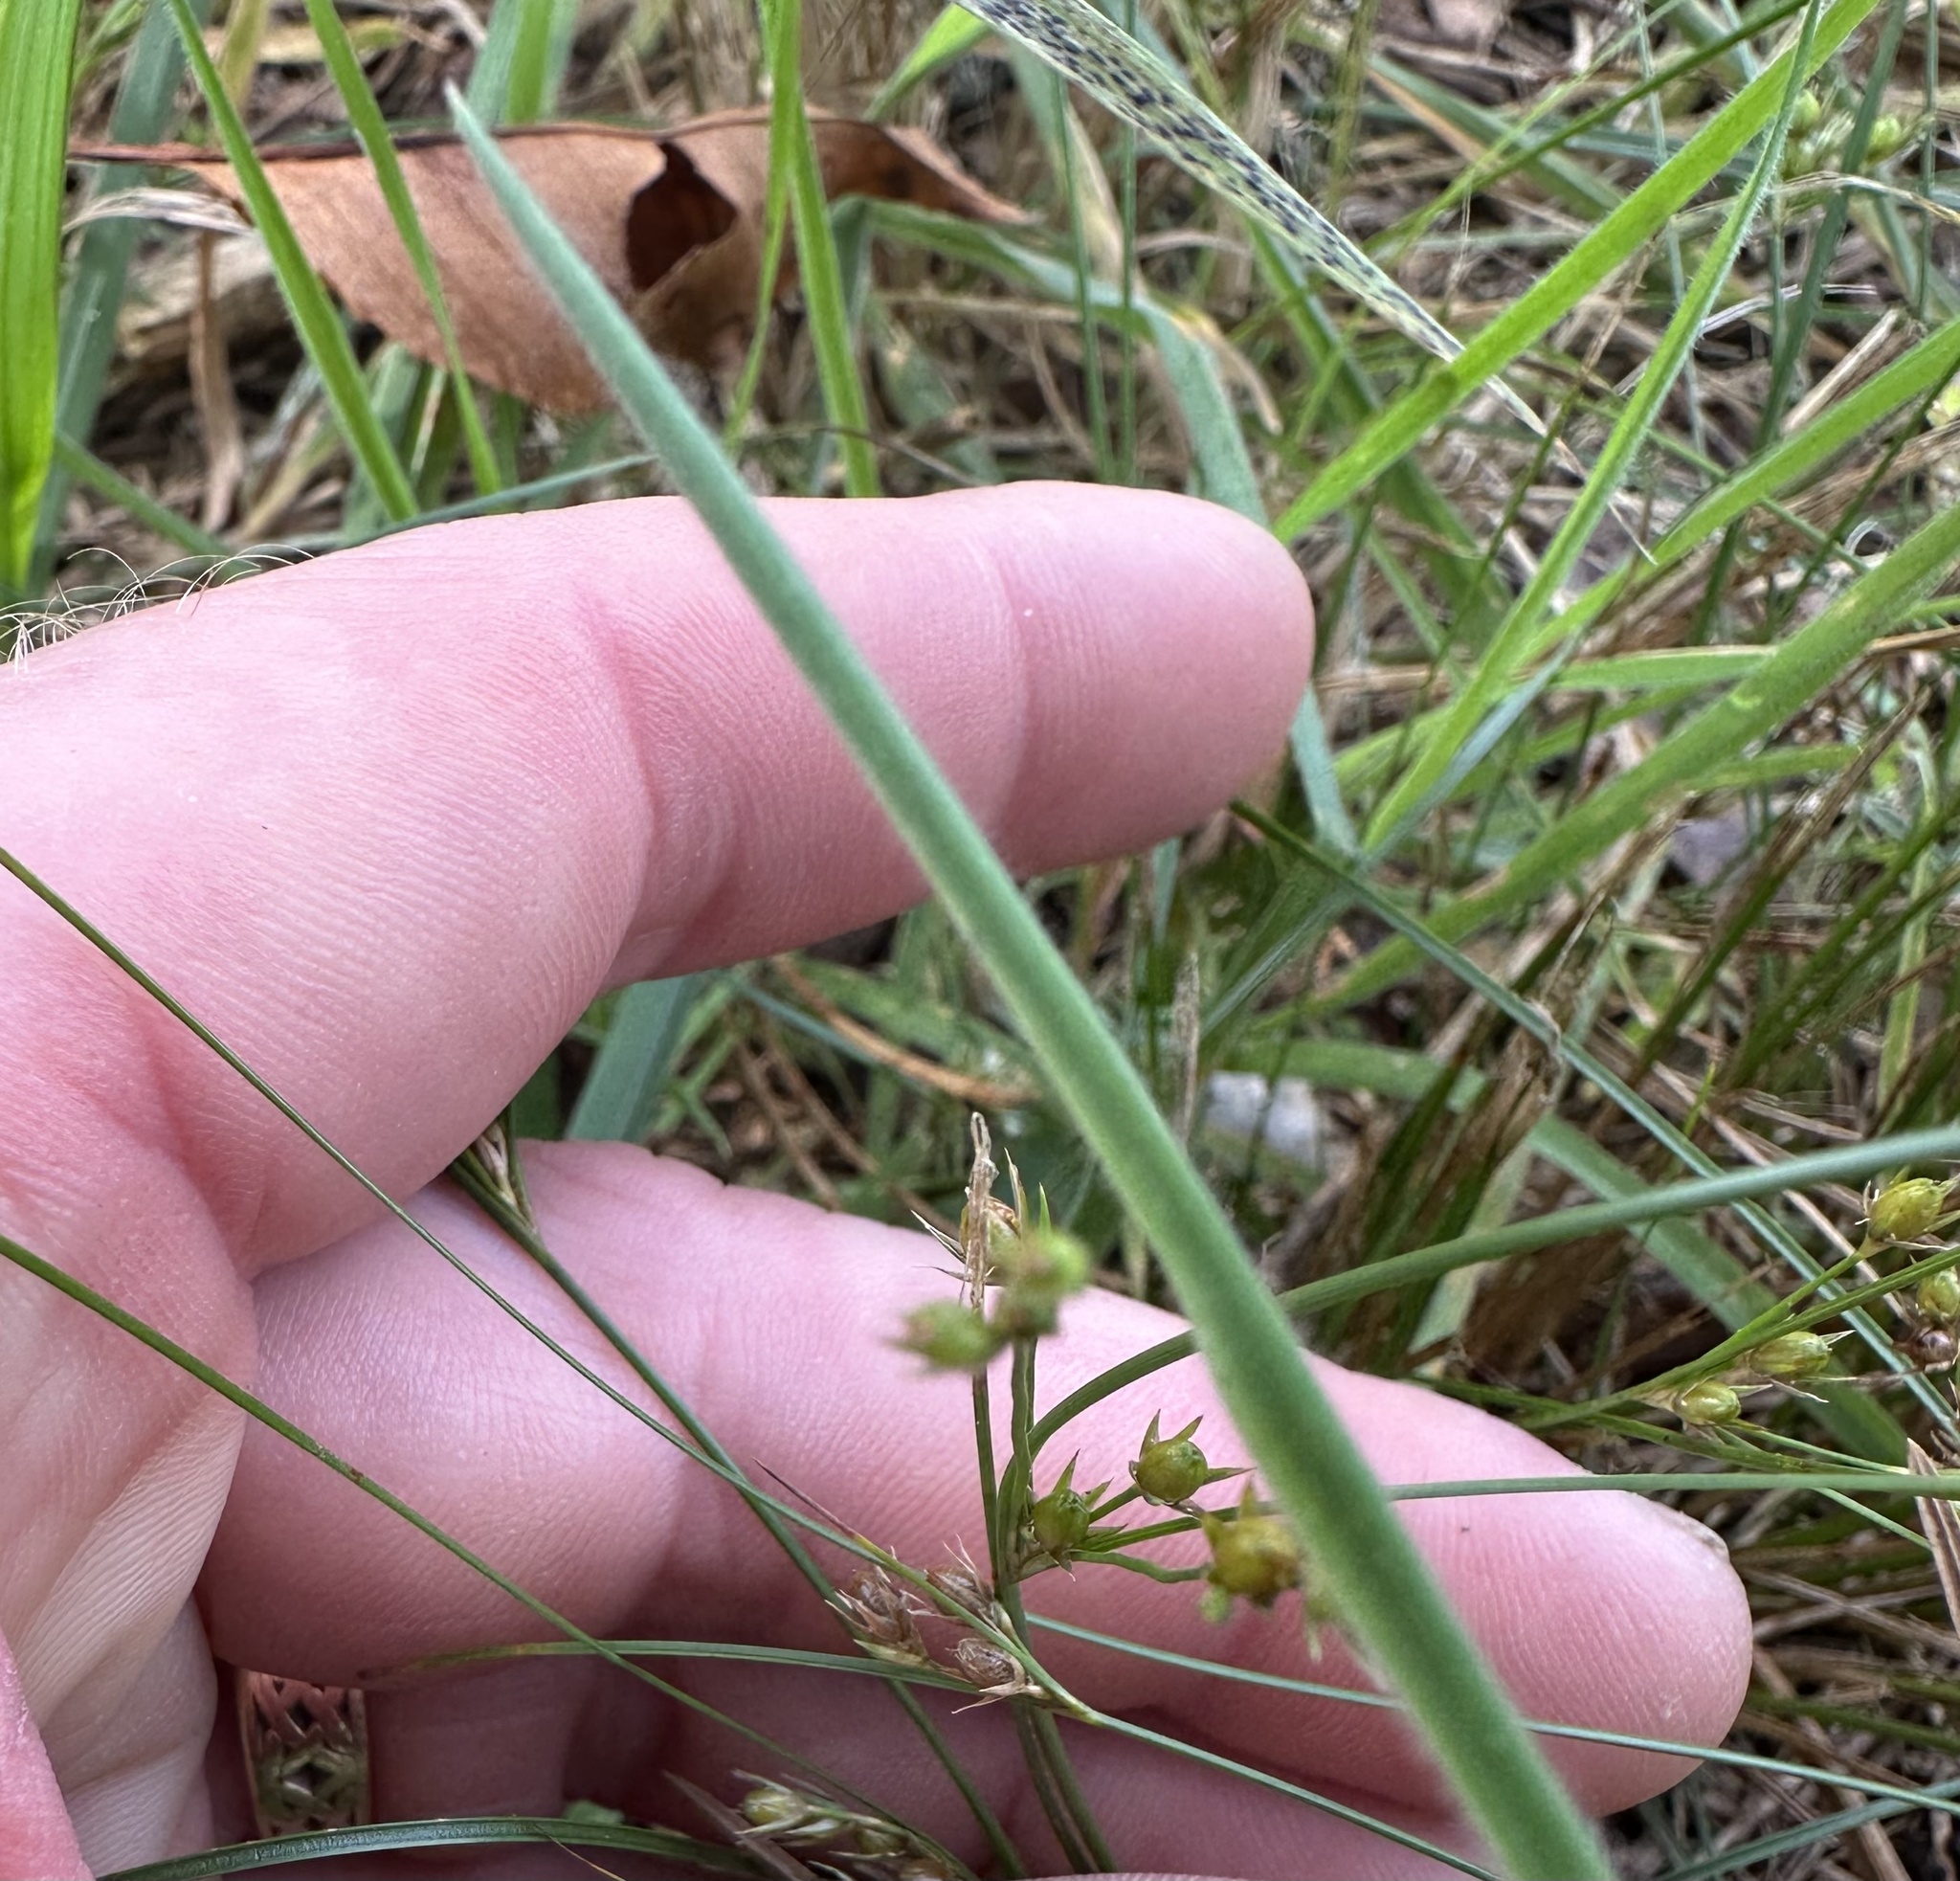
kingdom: Plantae
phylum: Tracheophyta
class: Liliopsida
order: Poales
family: Juncaceae
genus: Juncus
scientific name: Juncus tenuis
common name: Slender rush
